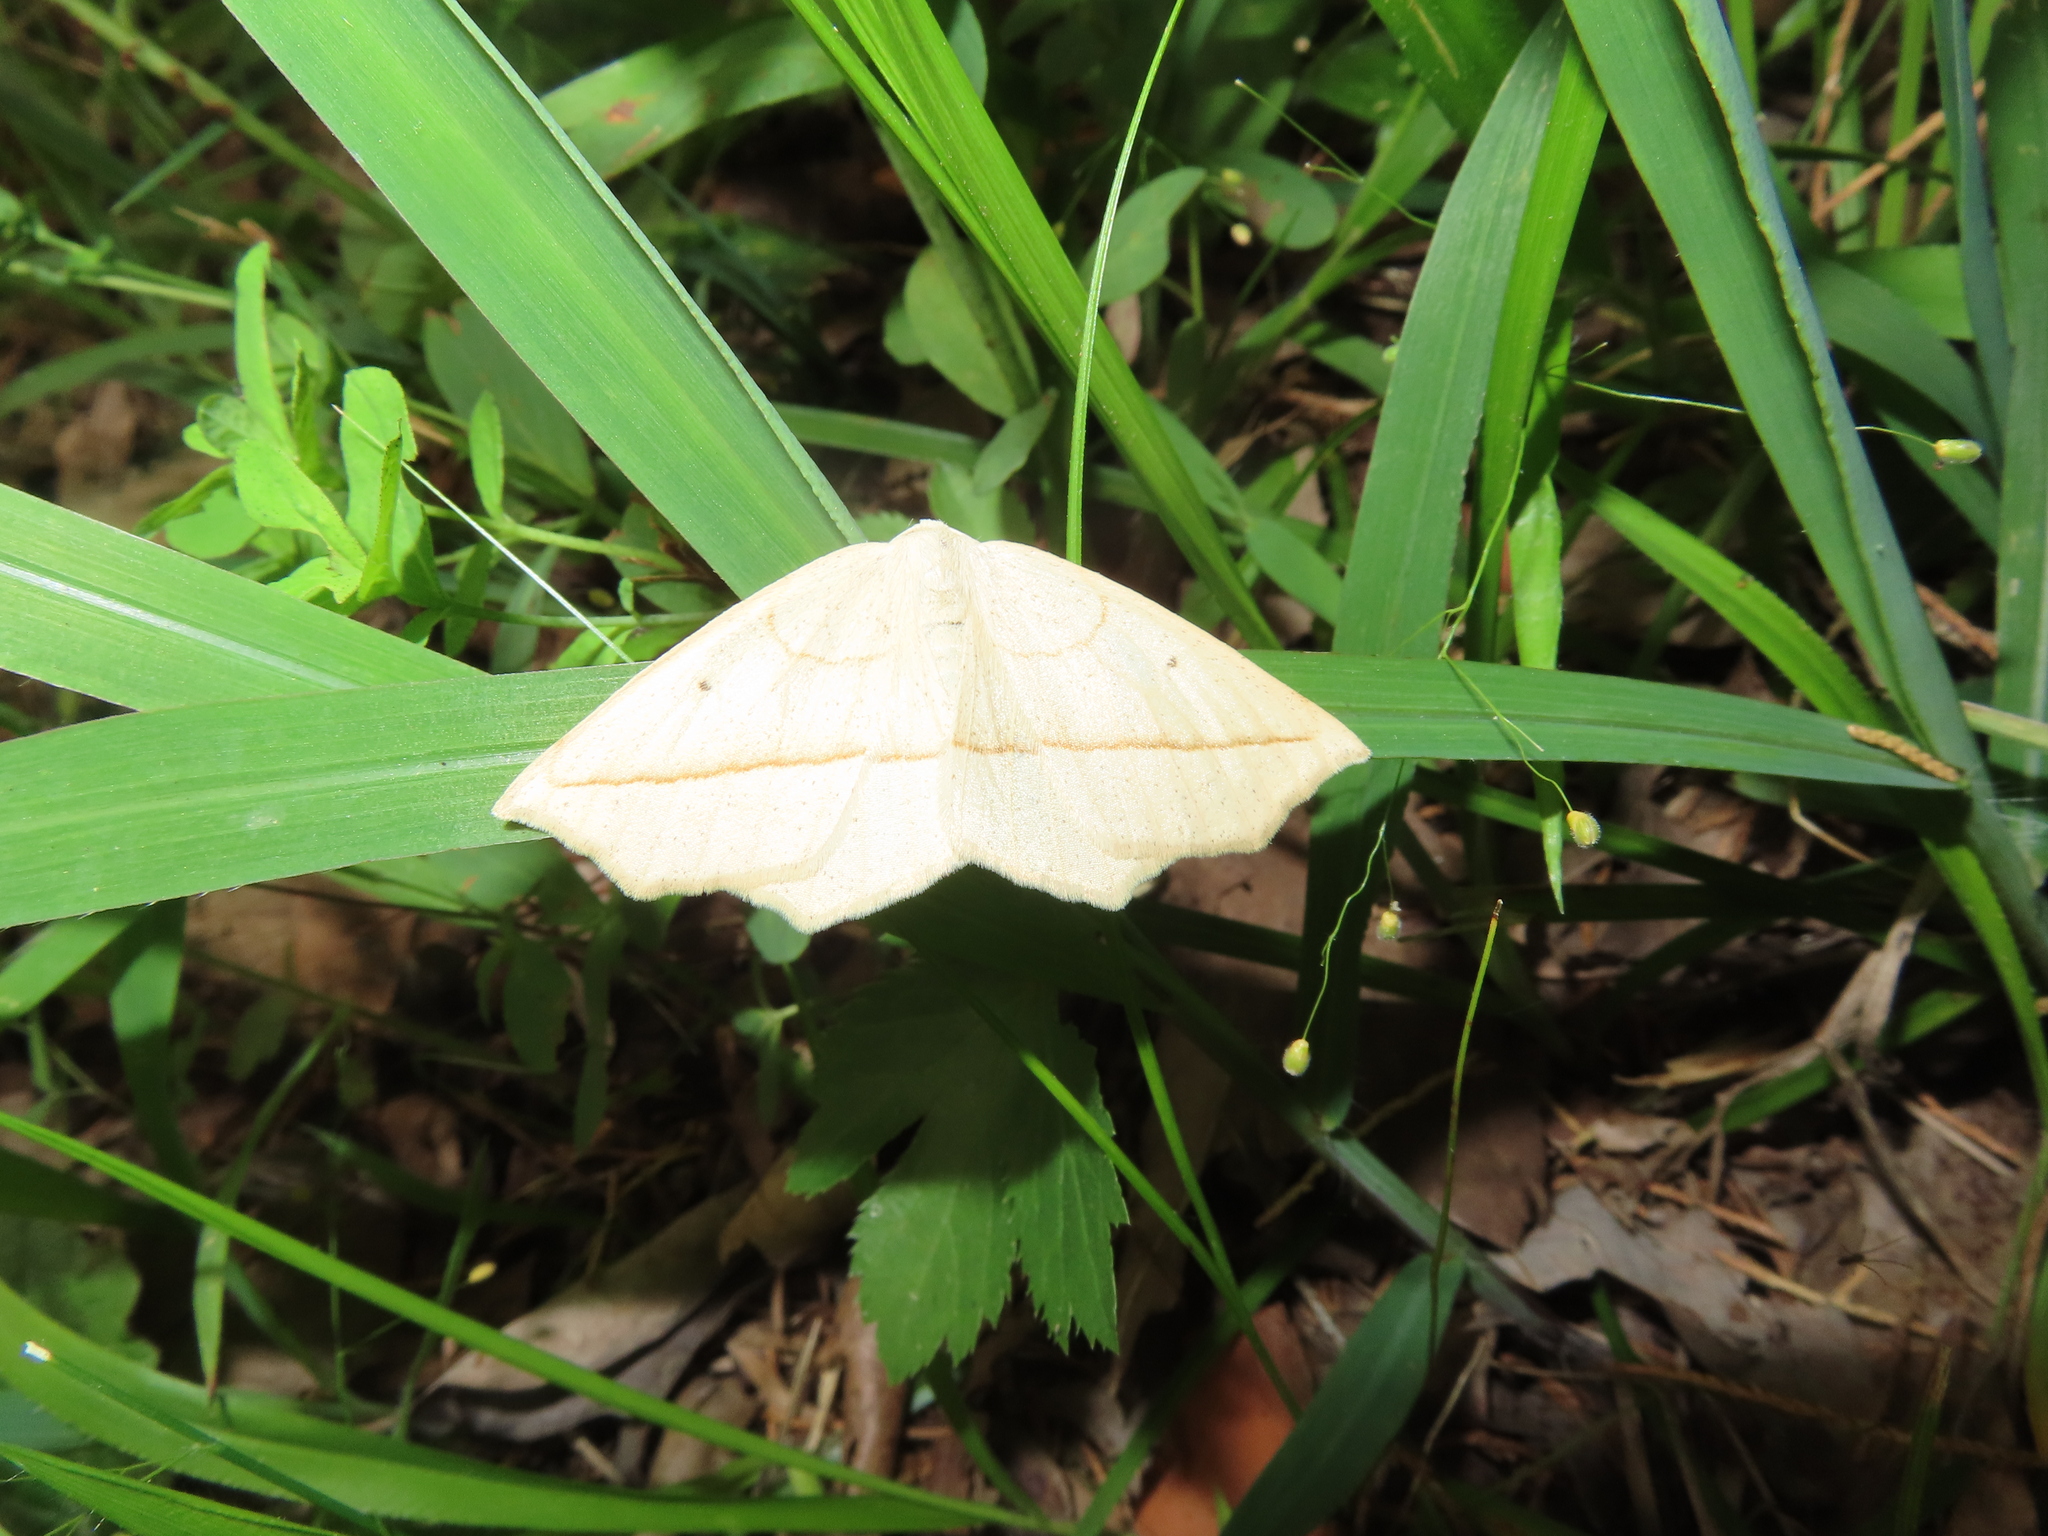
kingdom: Animalia
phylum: Arthropoda
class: Insecta
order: Lepidoptera
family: Geometridae
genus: Eusarca
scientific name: Eusarca confusaria
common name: Confused eusarca
